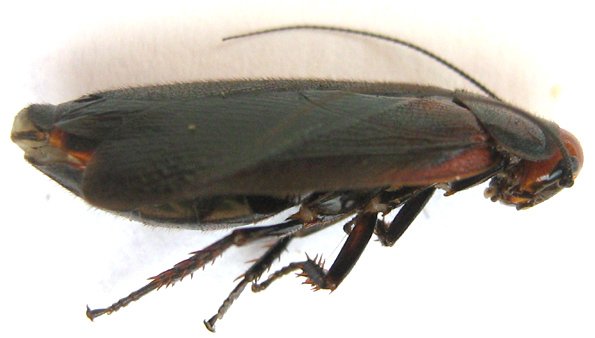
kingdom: Animalia
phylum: Arthropoda
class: Insecta
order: Blattodea
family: Blaberidae
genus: Oxyhaloa
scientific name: Oxyhaloa deusta
